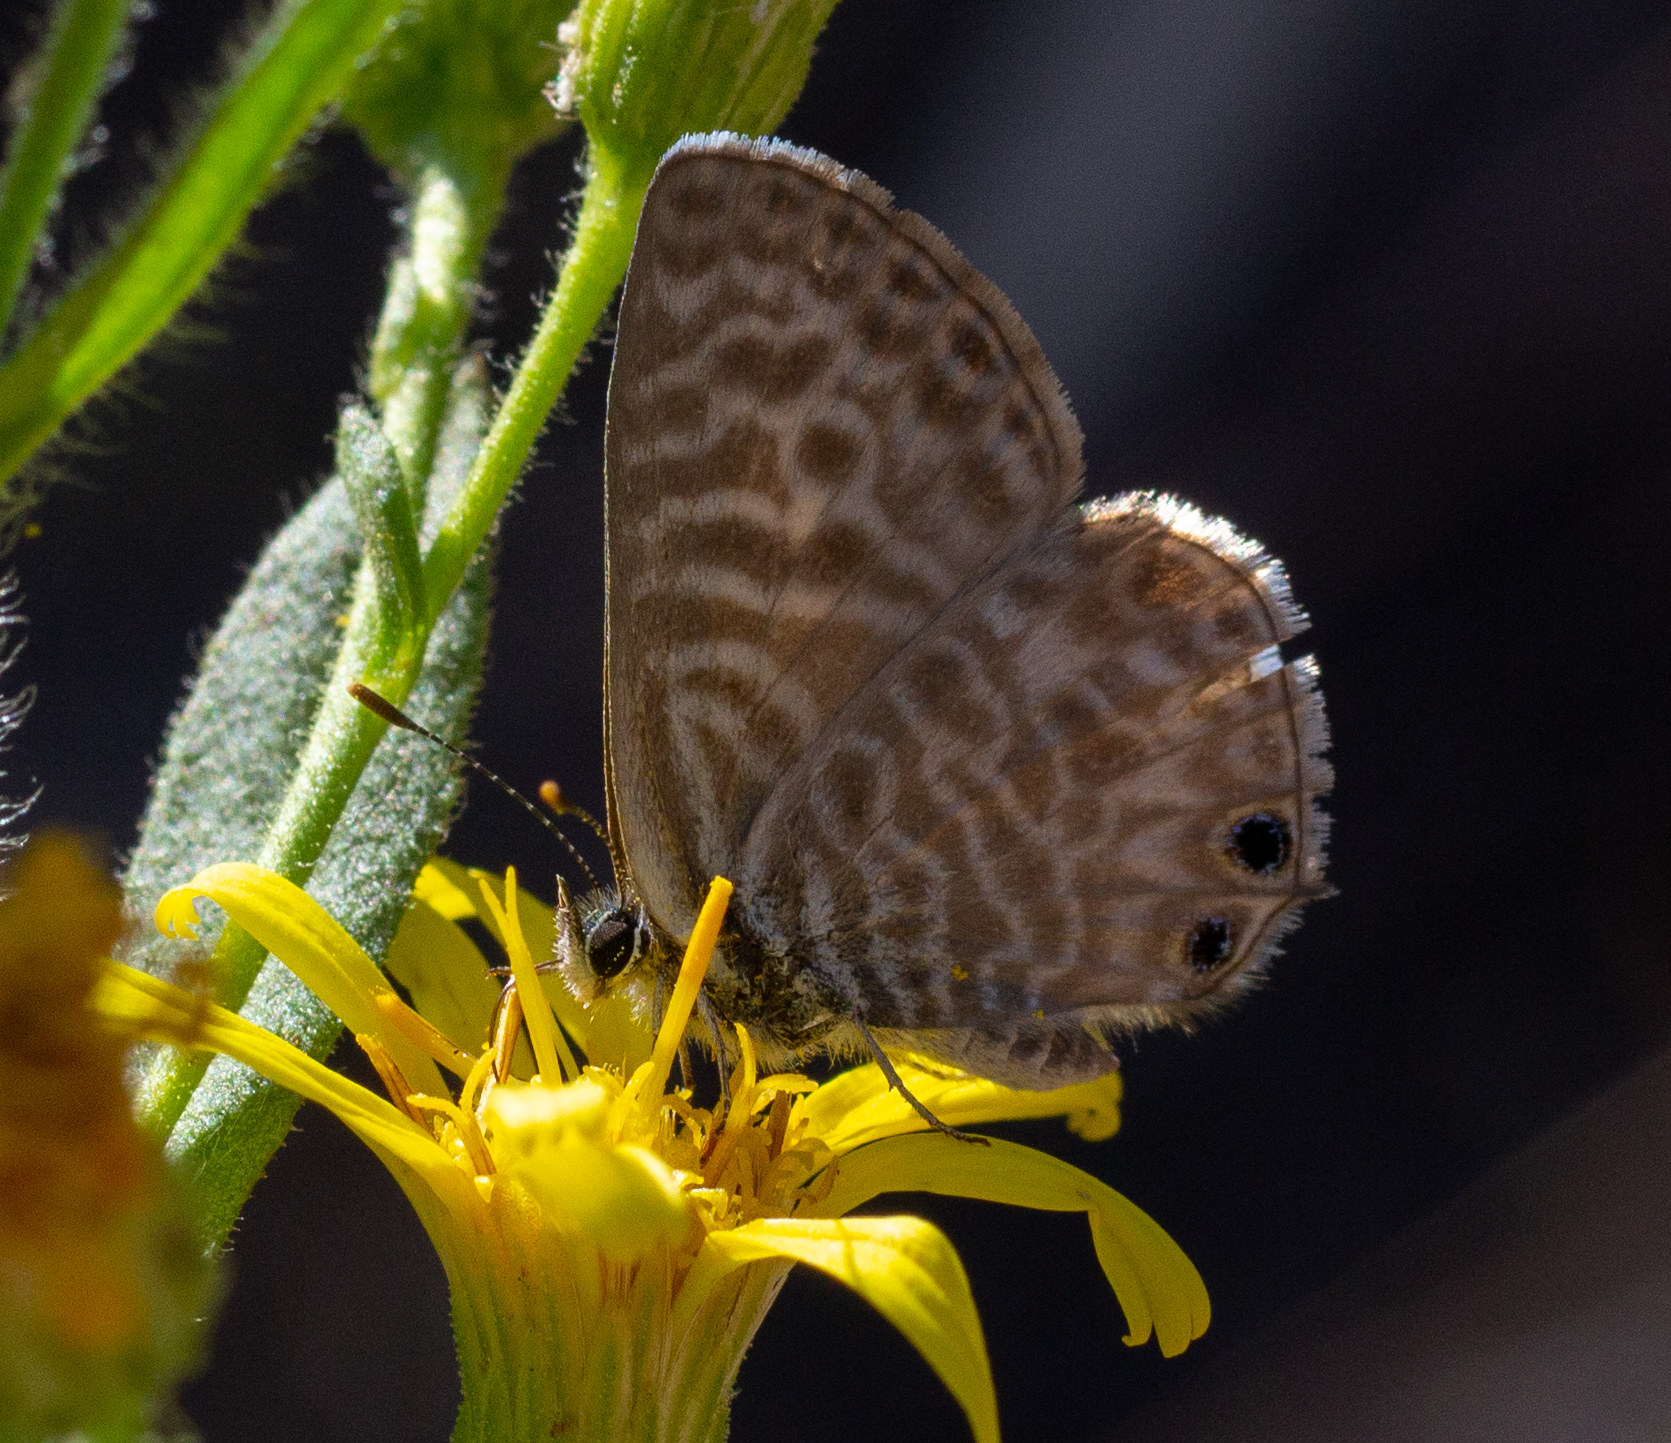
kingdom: Animalia
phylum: Arthropoda
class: Insecta
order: Lepidoptera
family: Lycaenidae
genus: Leptotes
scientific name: Leptotes pirithous
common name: Lang's short-tailed blue
